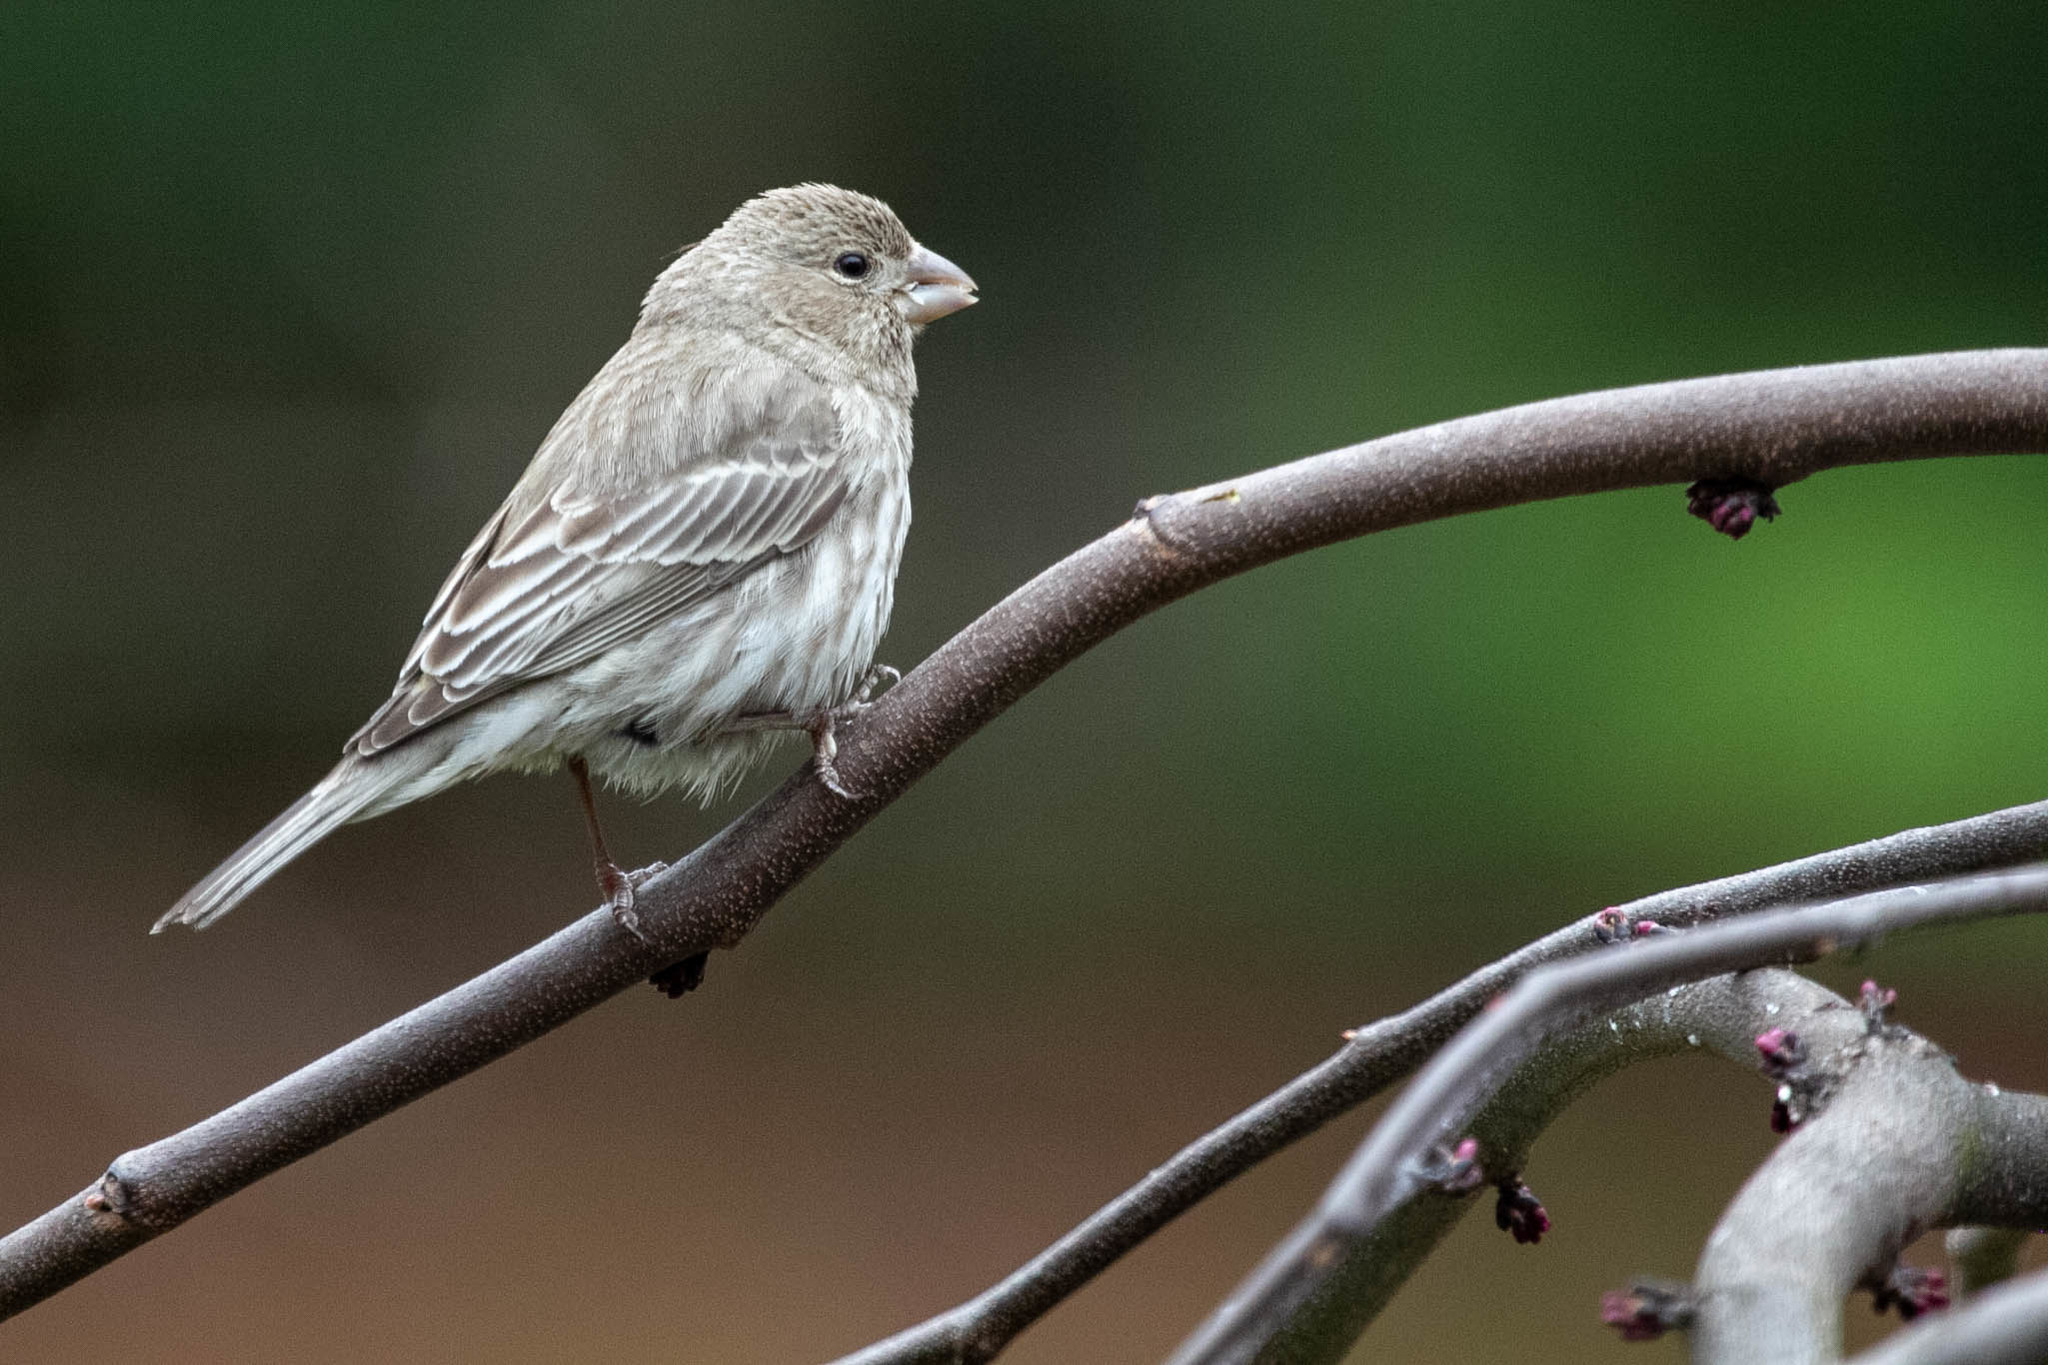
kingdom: Animalia
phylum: Chordata
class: Aves
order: Passeriformes
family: Fringillidae
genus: Haemorhous
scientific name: Haemorhous mexicanus
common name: House finch
